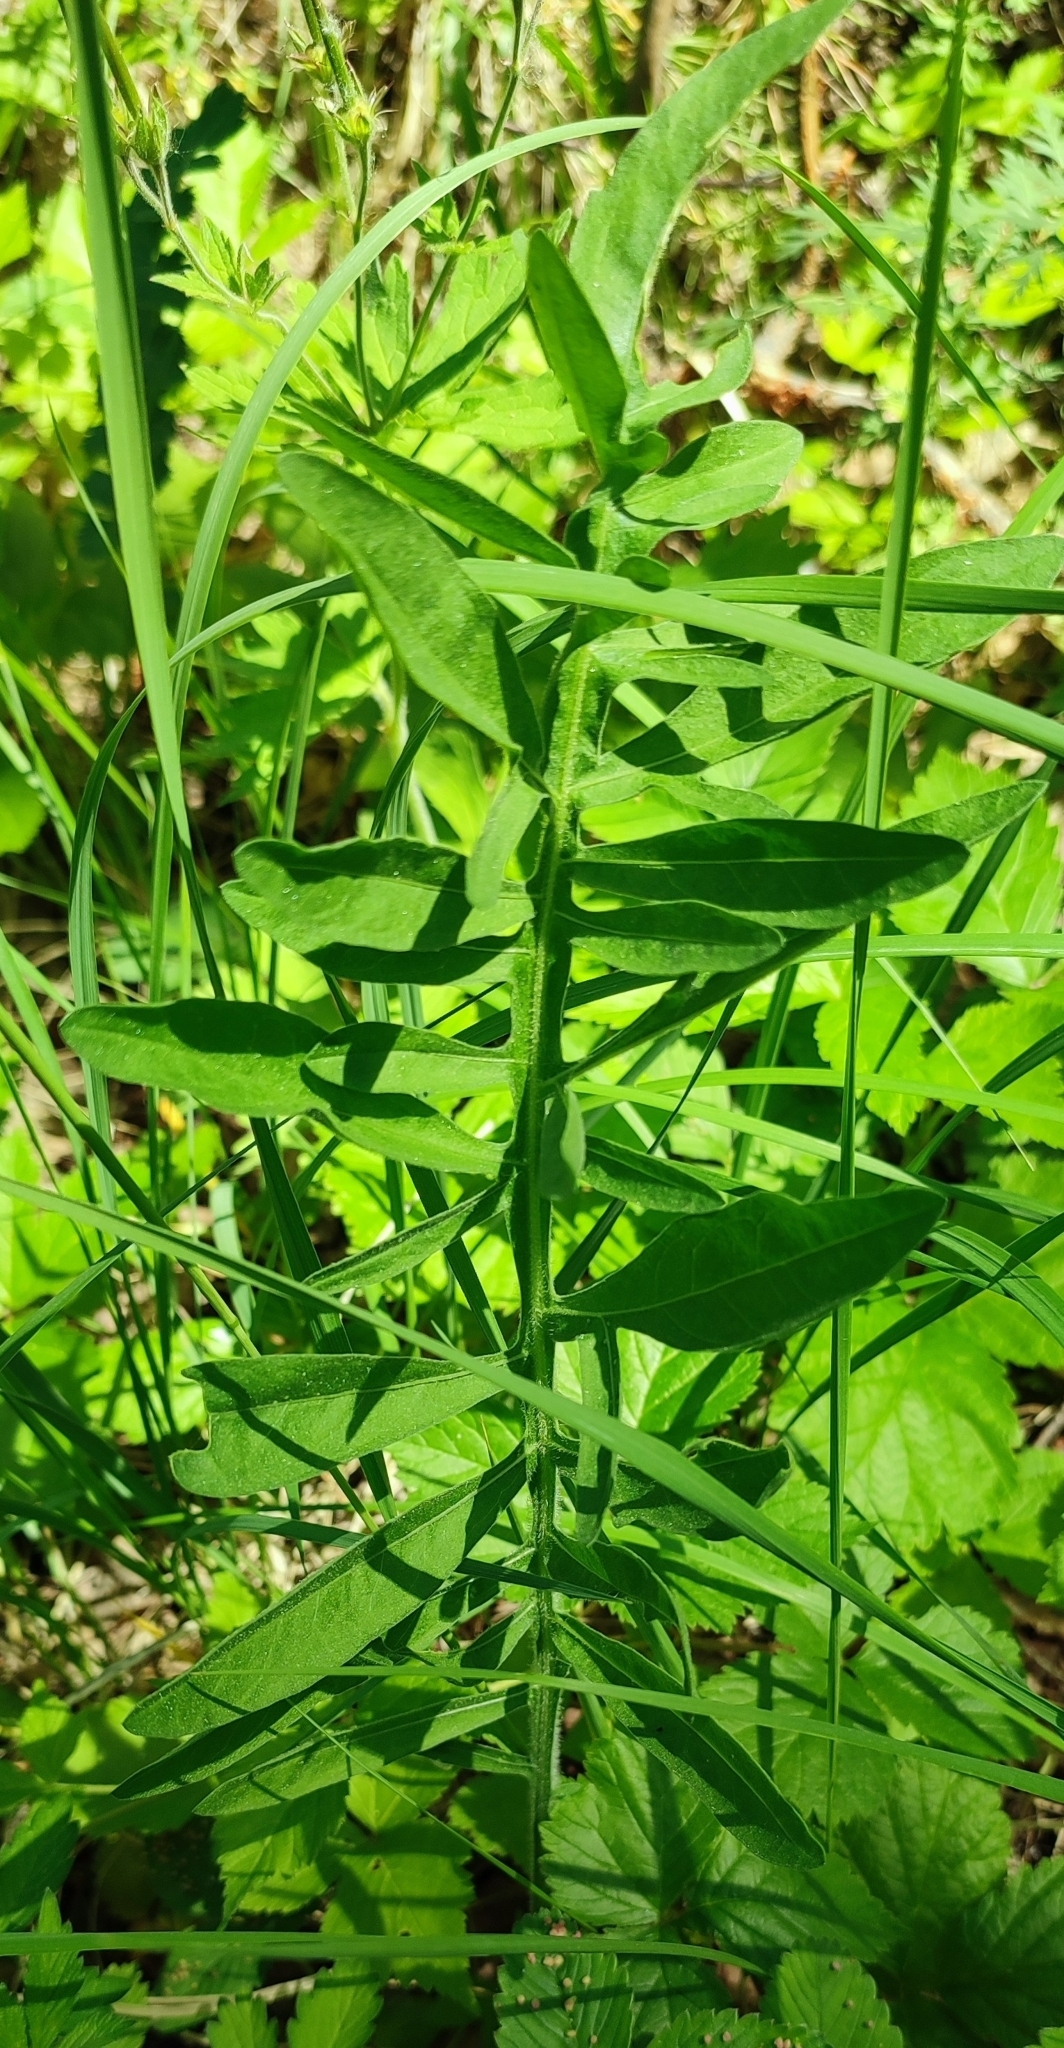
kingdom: Plantae
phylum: Tracheophyta
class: Magnoliopsida
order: Asterales
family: Asteraceae
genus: Centaurea
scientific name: Centaurea scabiosa
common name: Greater knapweed
